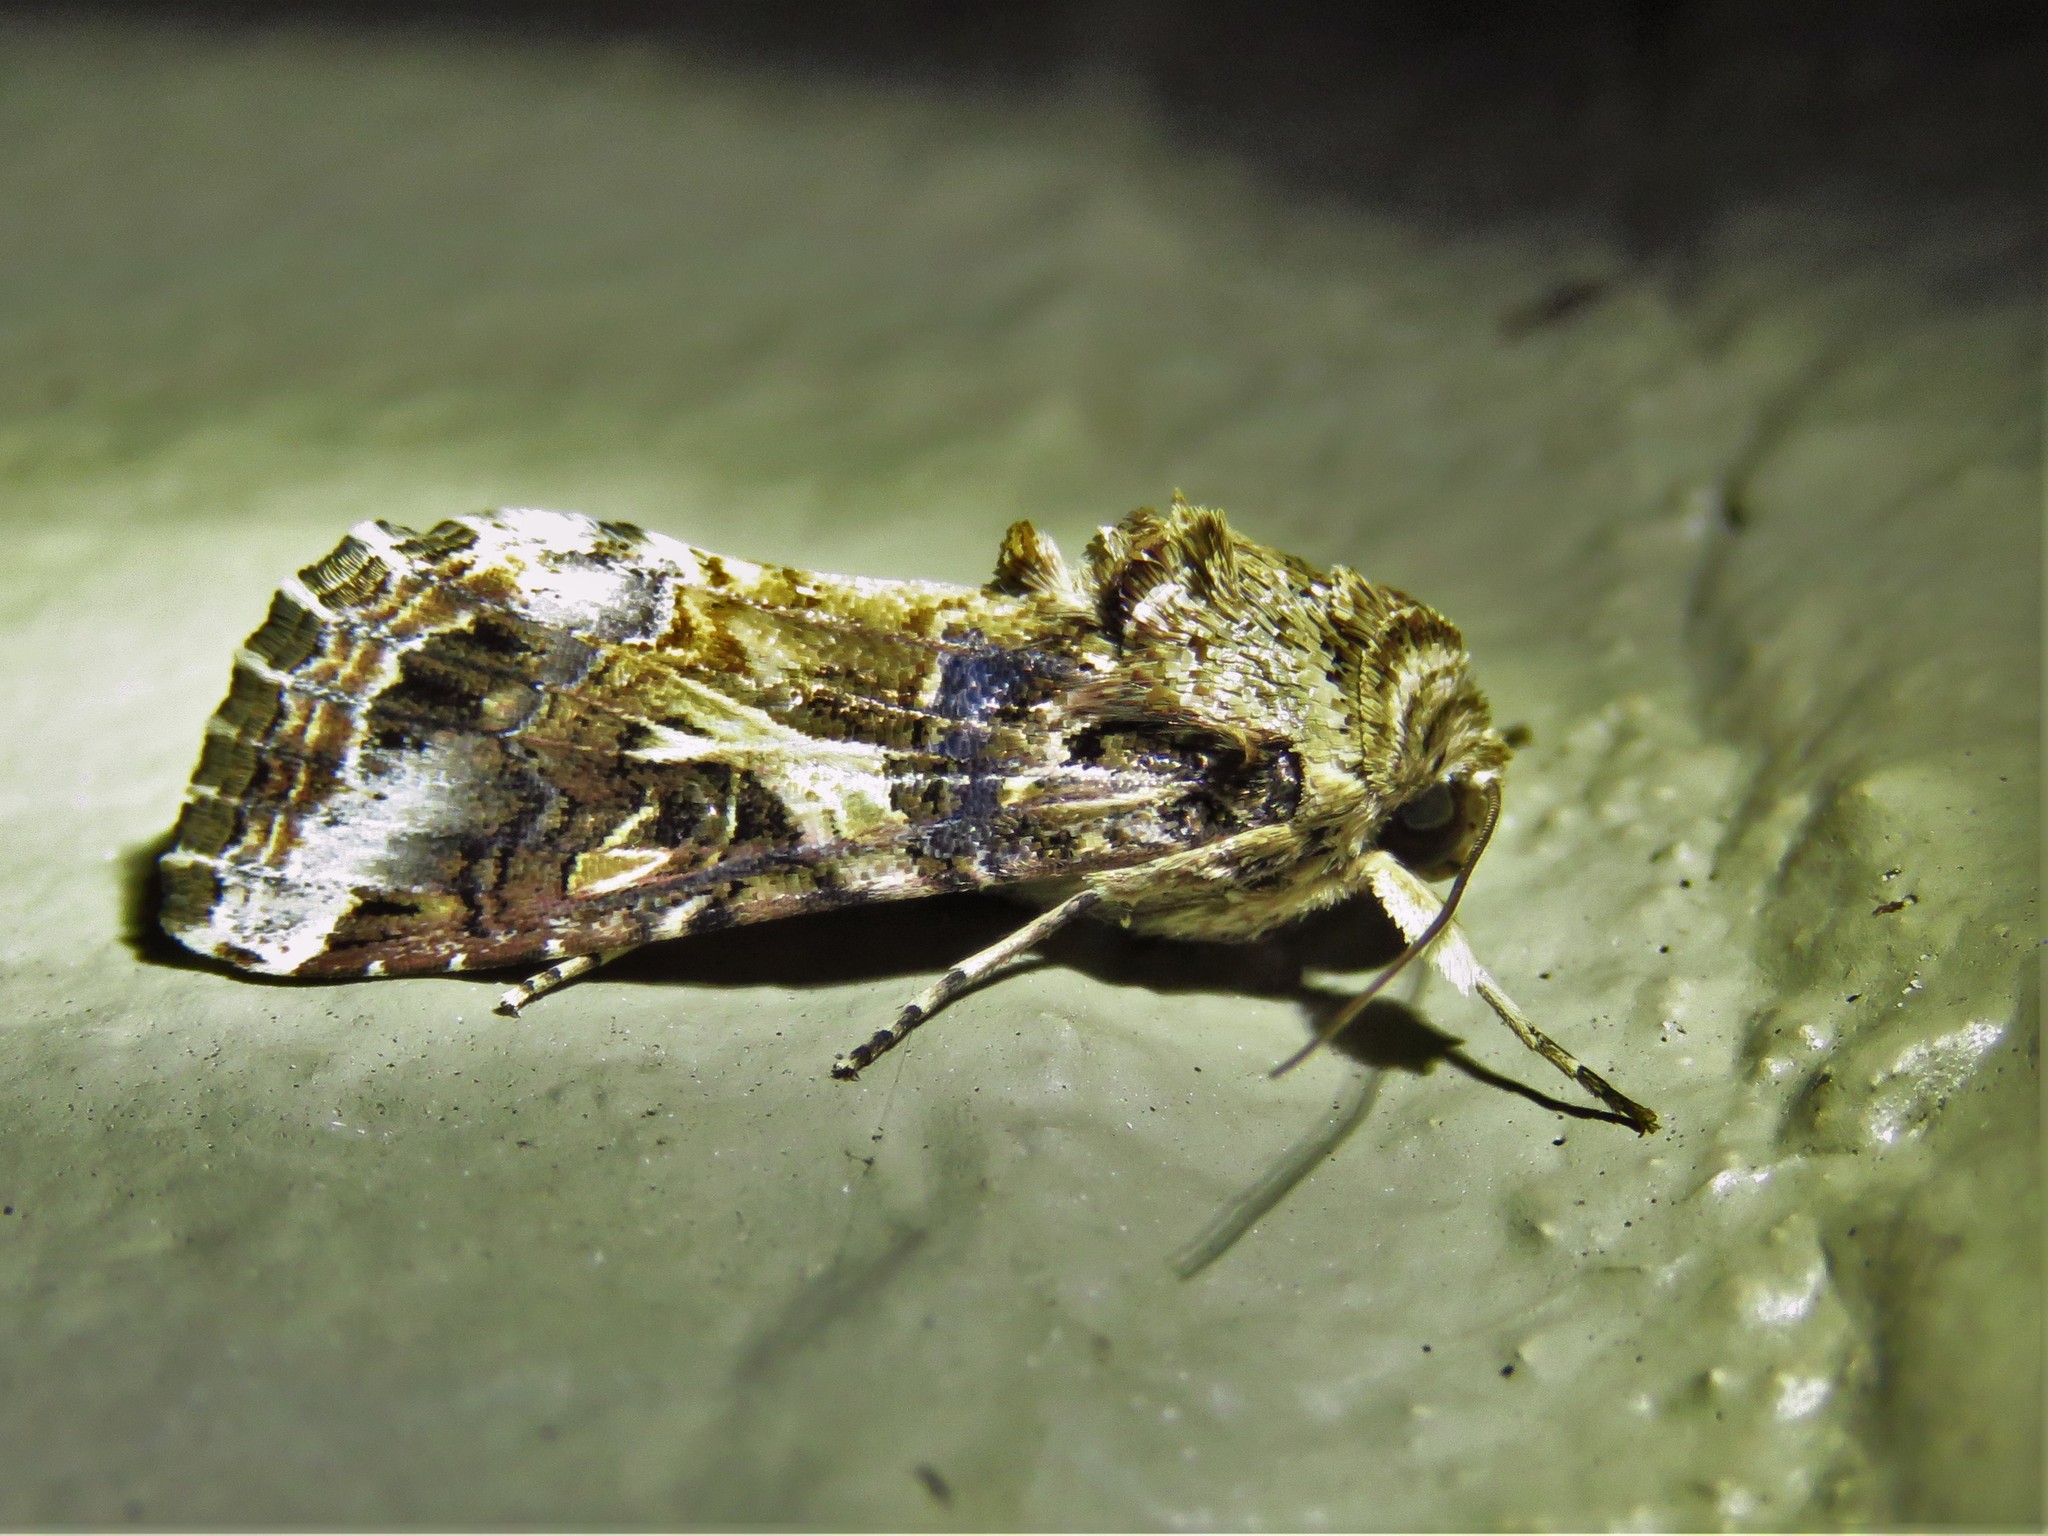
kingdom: Animalia
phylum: Arthropoda
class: Insecta
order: Lepidoptera
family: Noctuidae
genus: Spodoptera
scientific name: Spodoptera ornithogalli
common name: Yellow-striped armyworm
